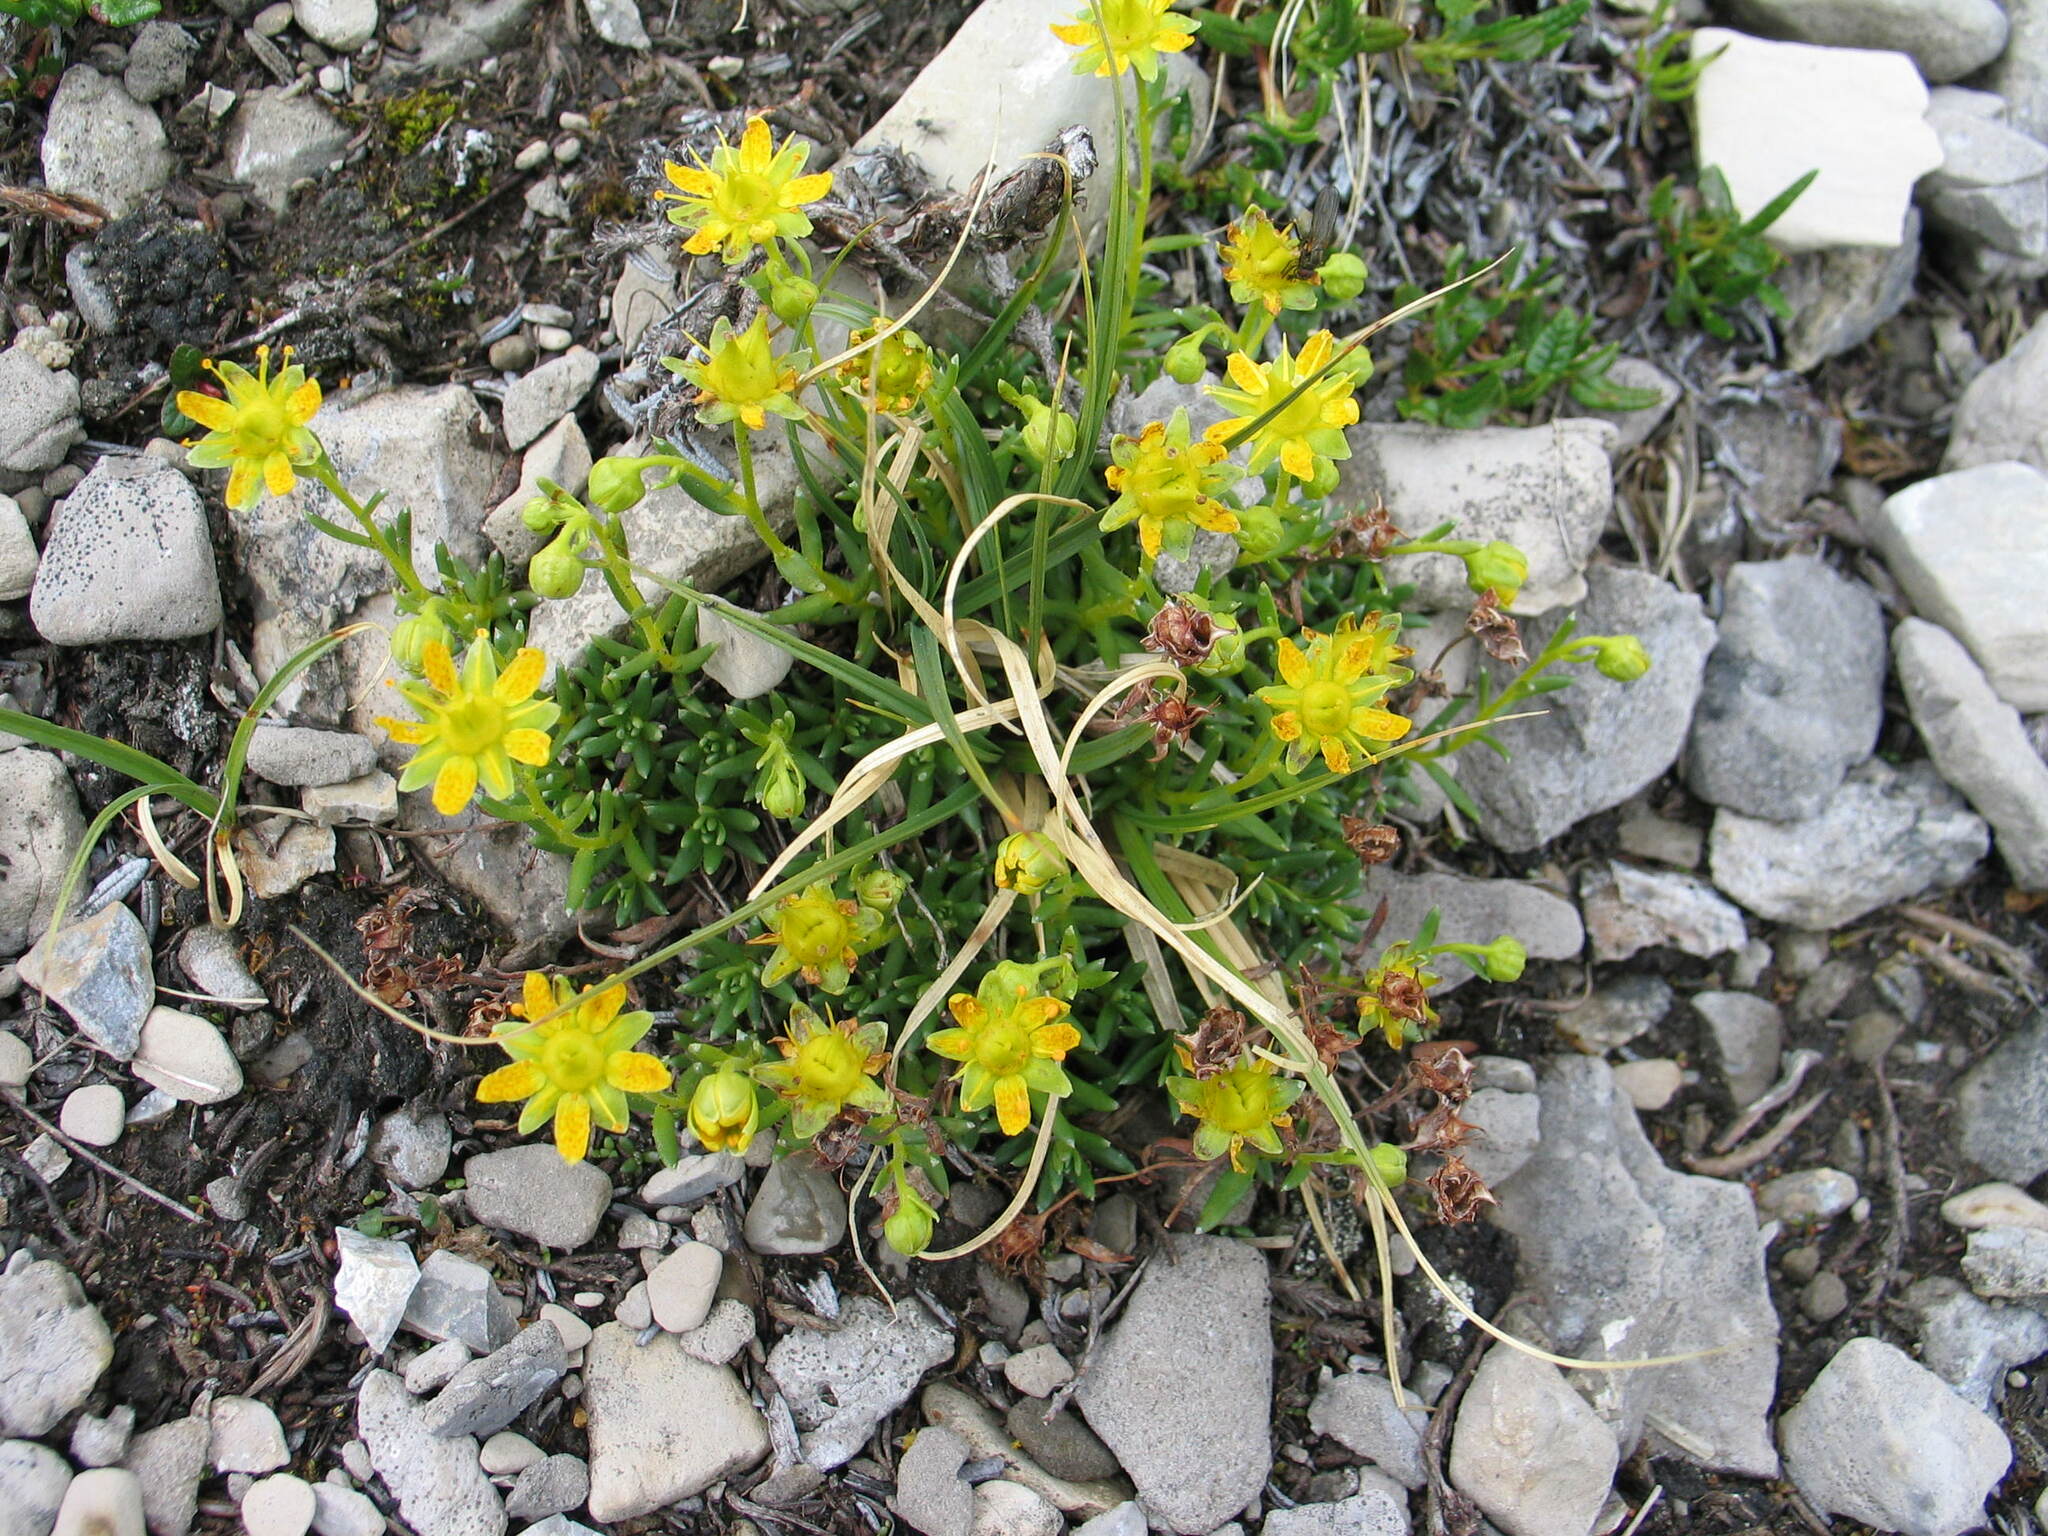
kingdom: Plantae
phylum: Tracheophyta
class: Magnoliopsida
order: Saxifragales
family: Saxifragaceae
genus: Saxifraga
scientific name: Saxifraga aizoides
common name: Yellow mountain saxifrage
